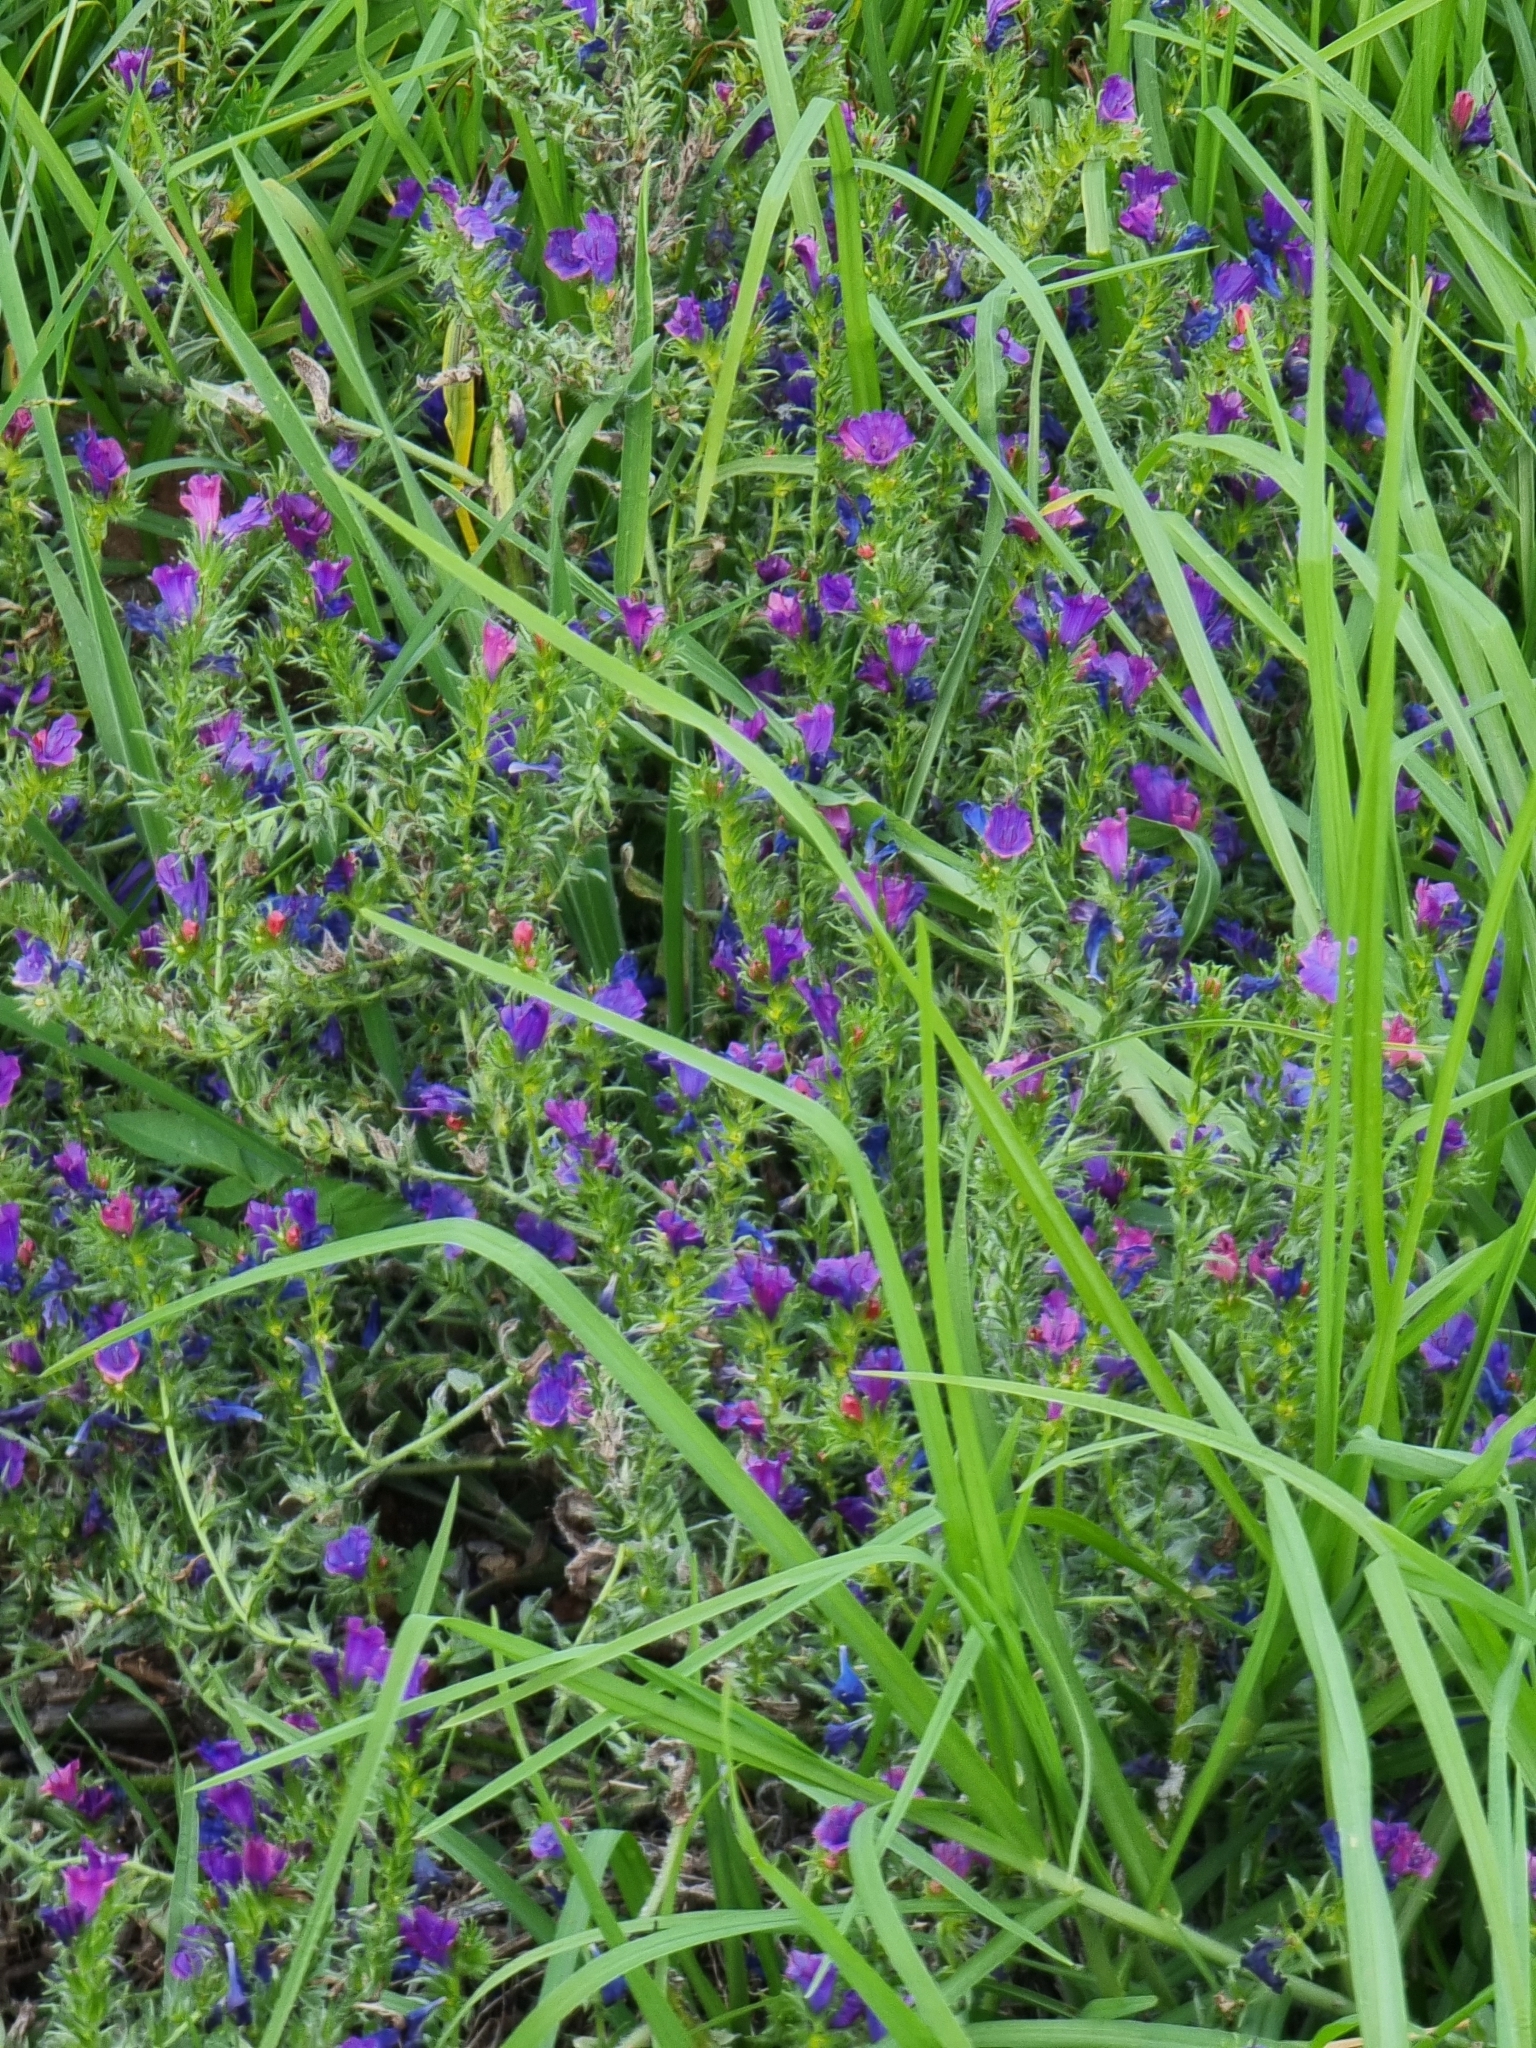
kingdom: Plantae
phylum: Tracheophyta
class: Magnoliopsida
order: Boraginales
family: Boraginaceae
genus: Echium
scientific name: Echium plantagineum
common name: Purple viper's-bugloss
